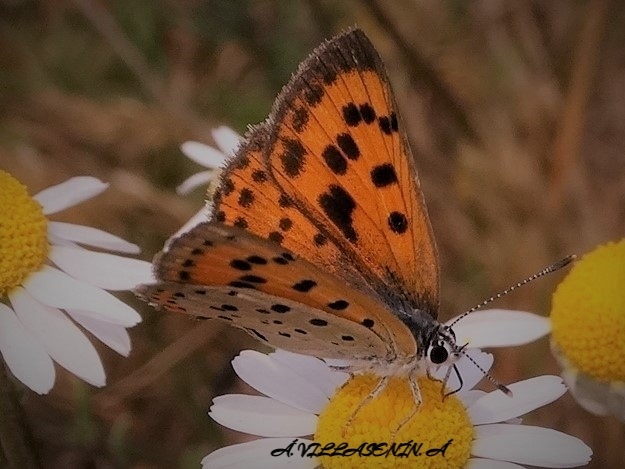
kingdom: Animalia
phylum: Arthropoda
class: Insecta
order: Lepidoptera
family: Lycaenidae
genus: Lycaena
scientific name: Lycaena alciphron
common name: Purple-shot copper
